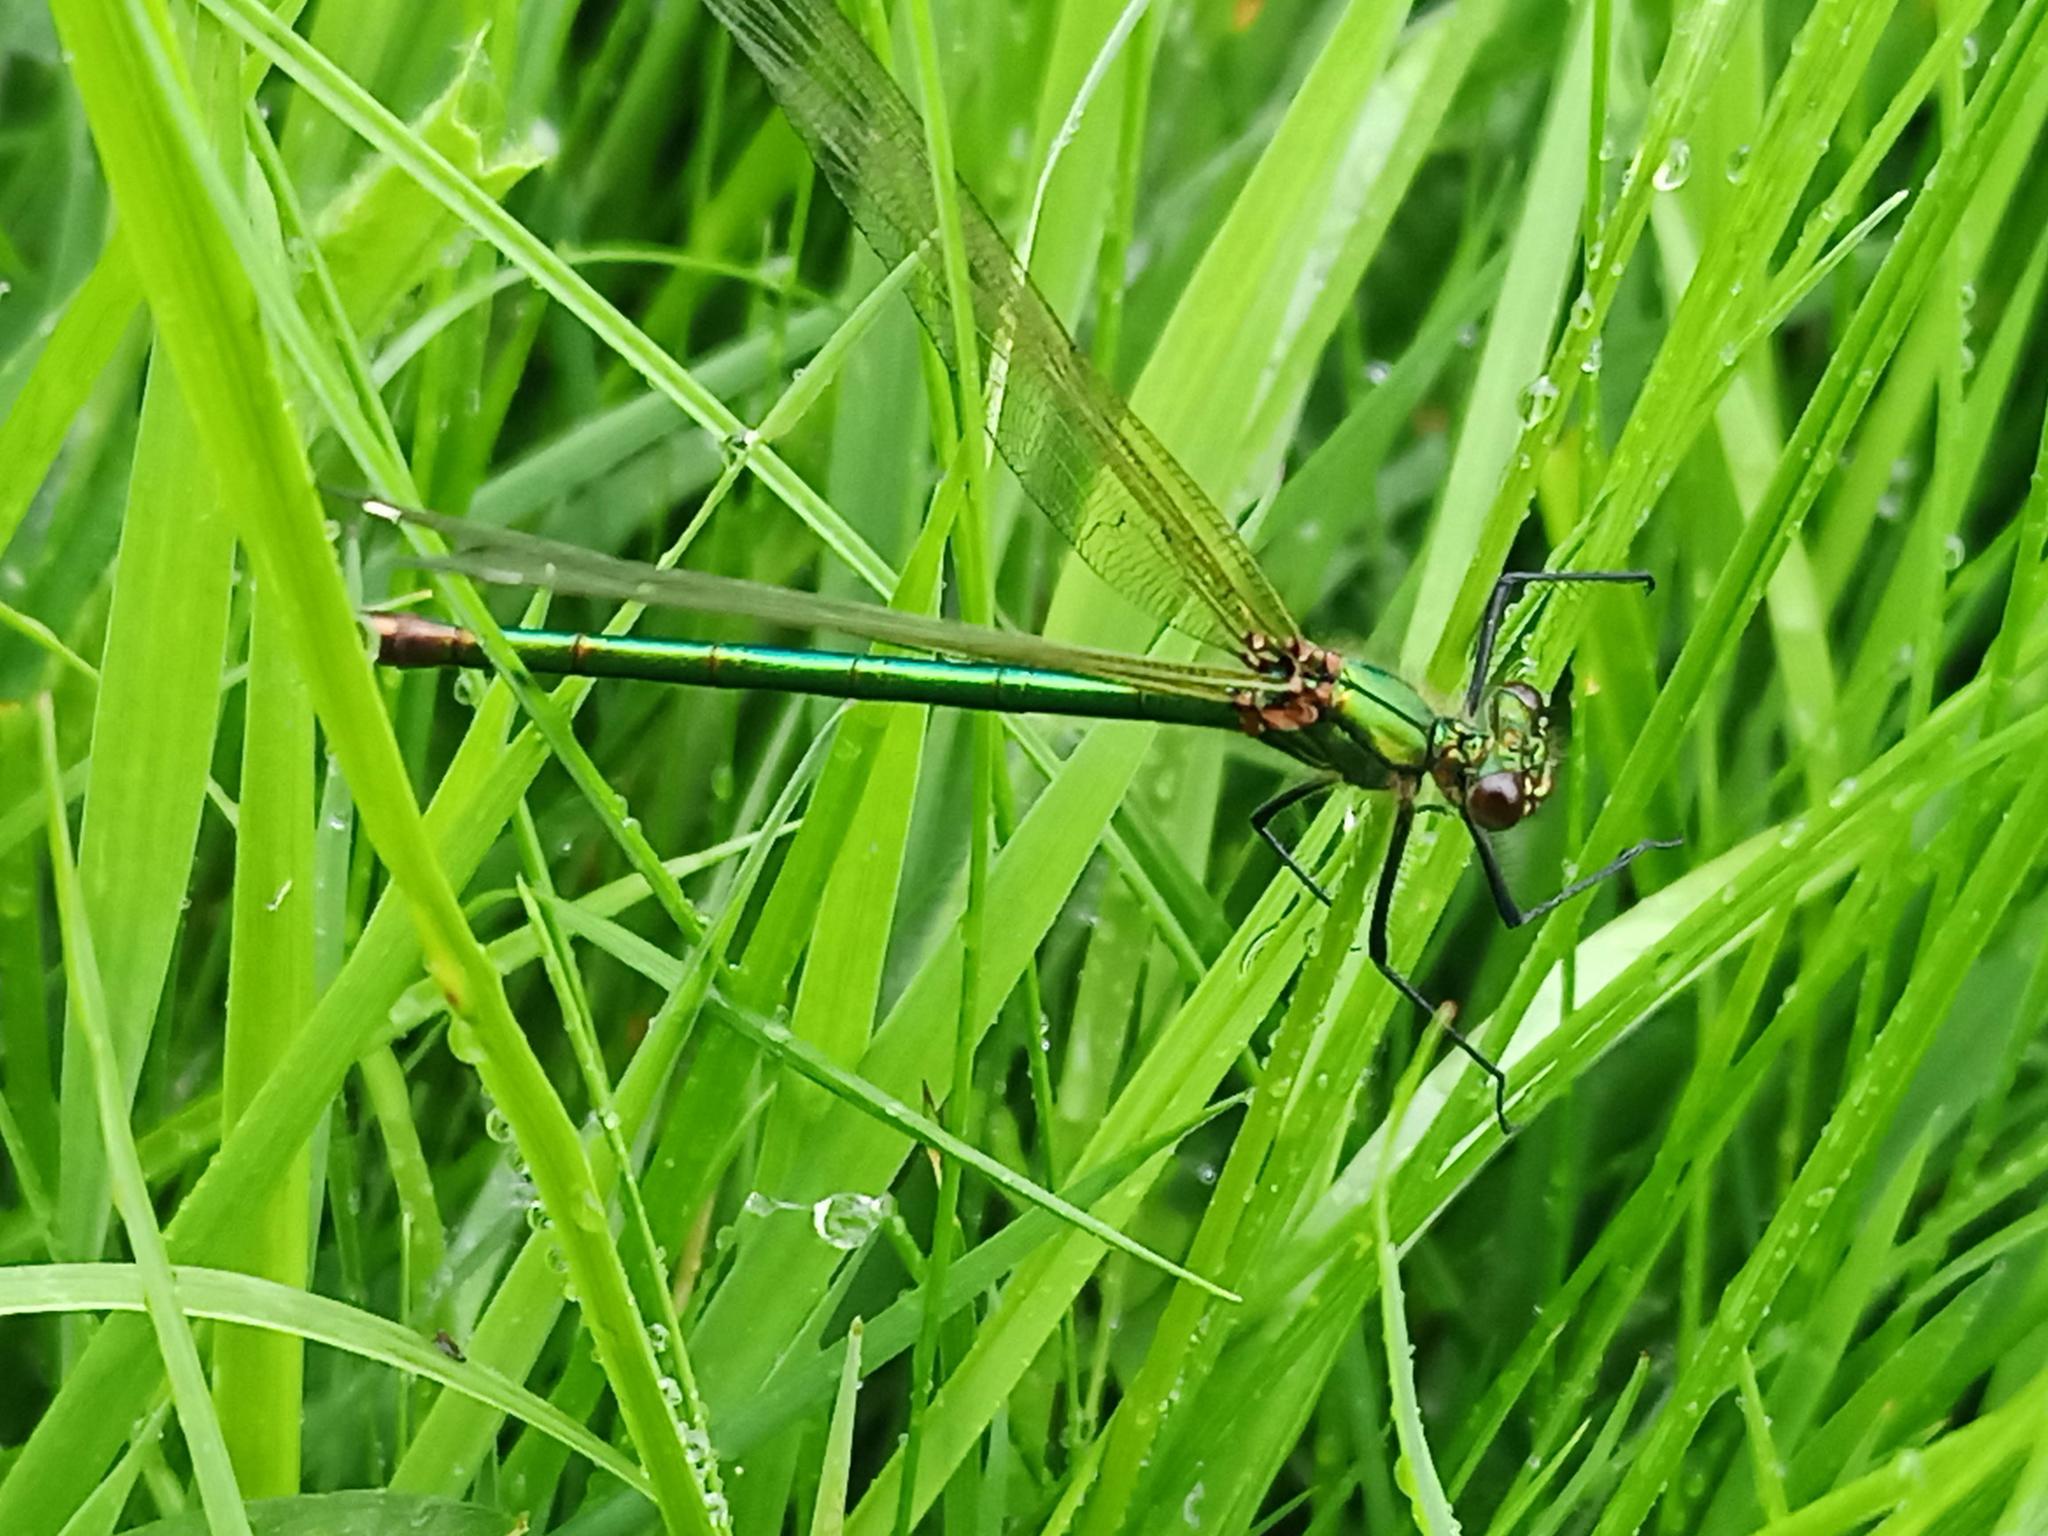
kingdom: Animalia
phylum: Arthropoda
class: Insecta
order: Odonata
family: Calopterygidae
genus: Calopteryx
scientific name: Calopteryx xanthostoma
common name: Western demoiselle
